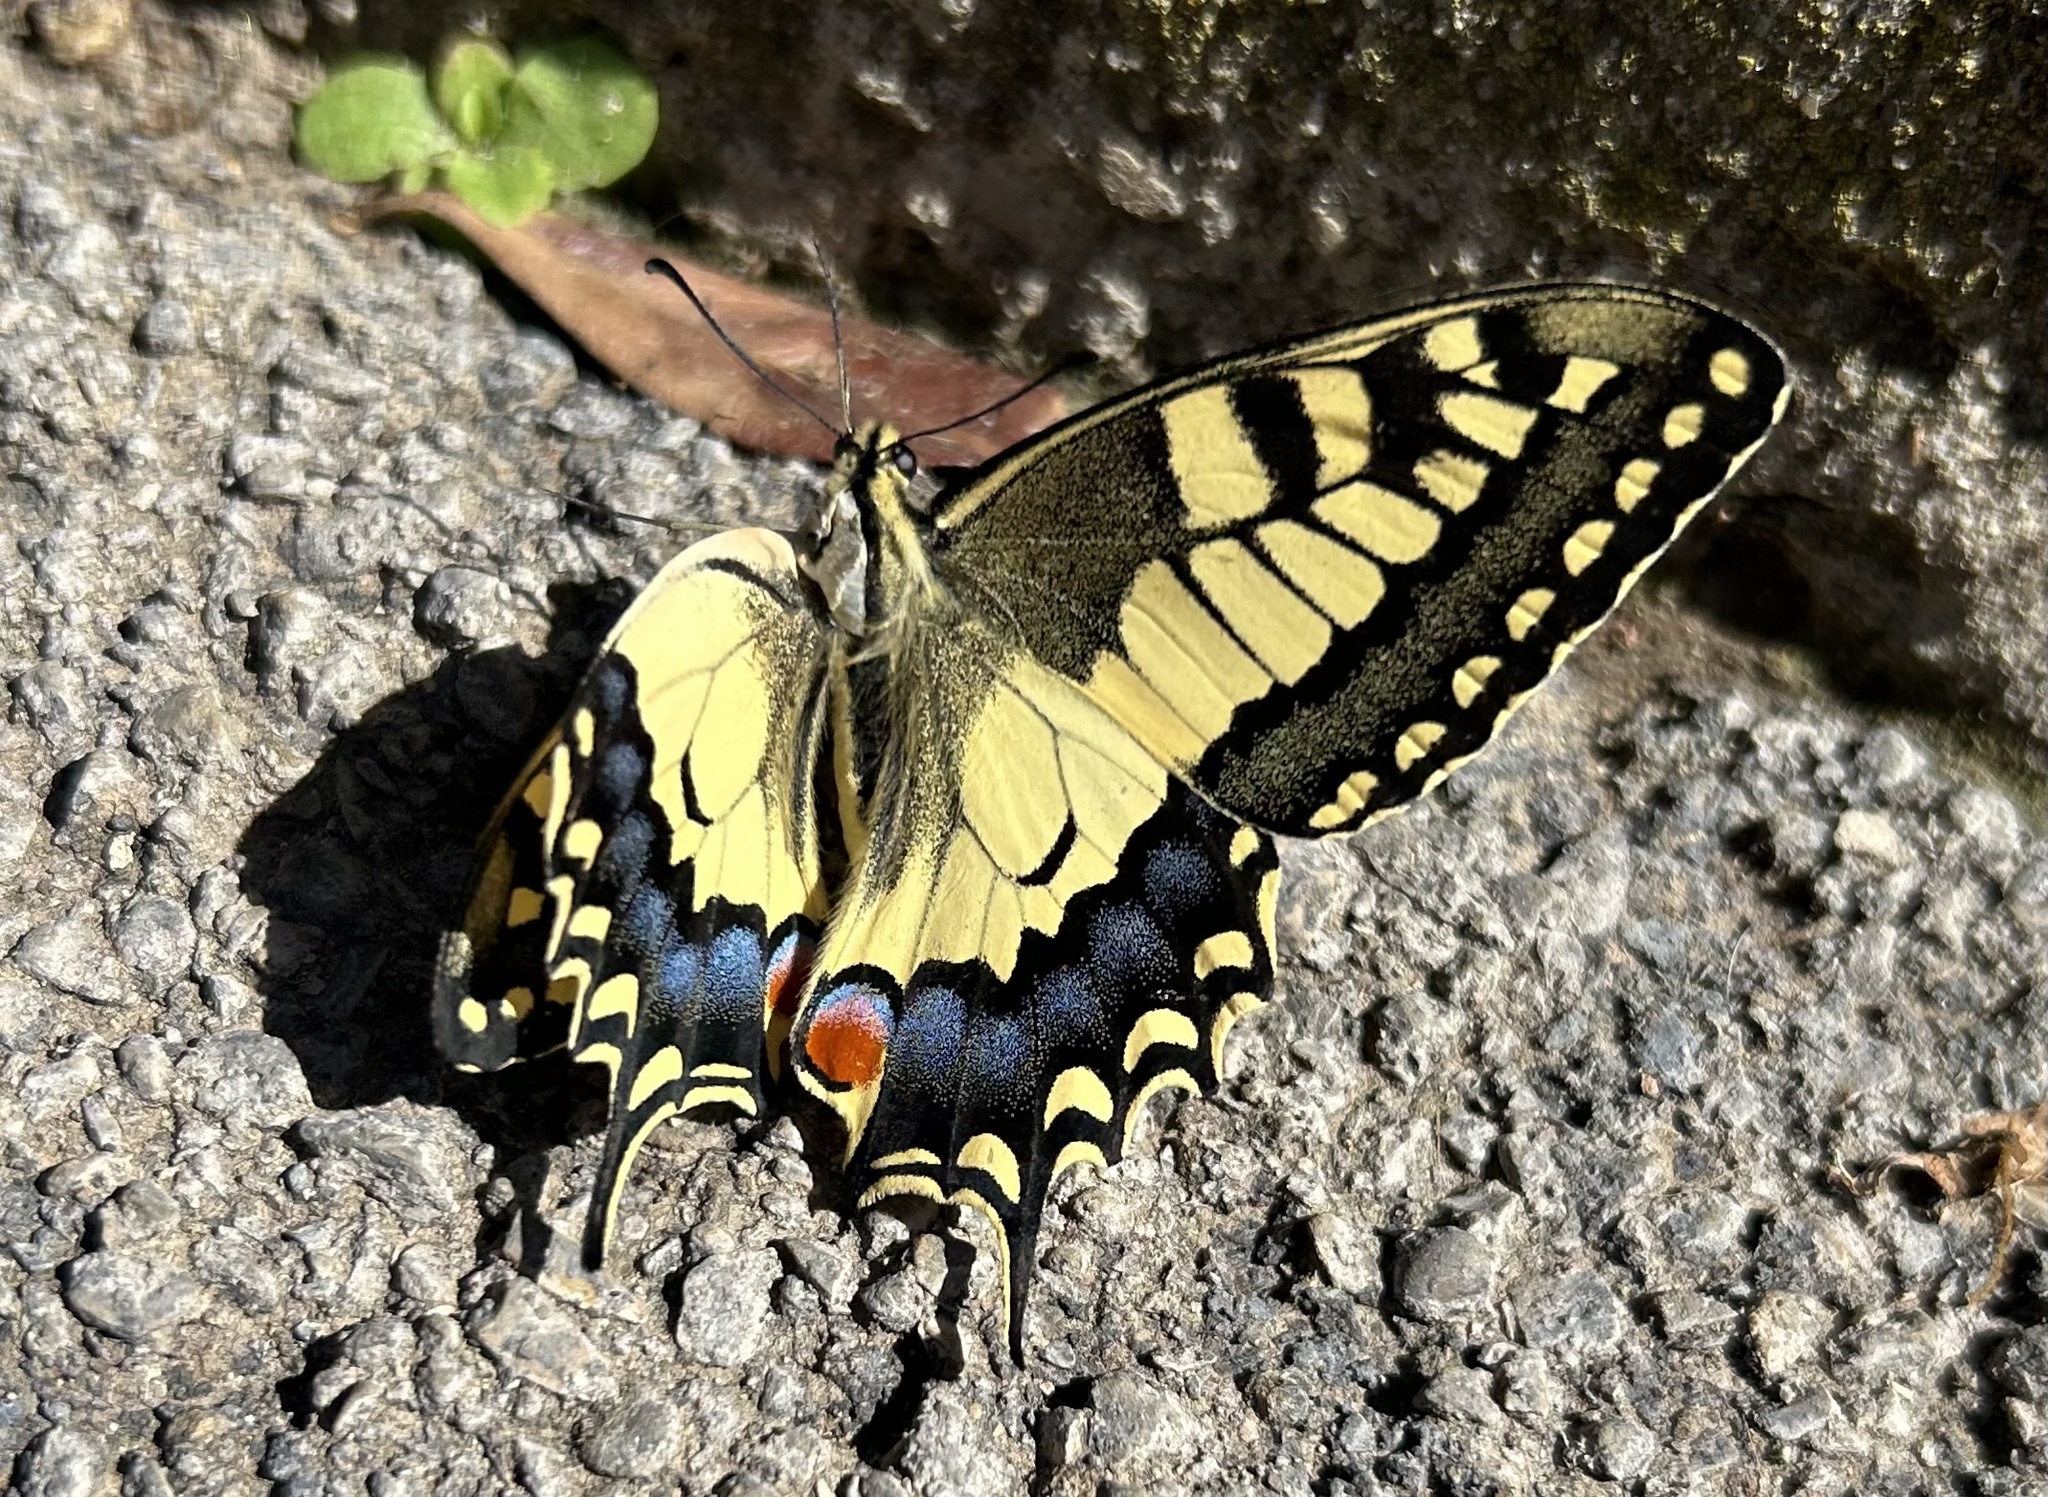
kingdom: Animalia
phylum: Arthropoda
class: Insecta
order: Lepidoptera
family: Papilionidae
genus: Papilio
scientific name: Papilio machaon
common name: Swallowtail
